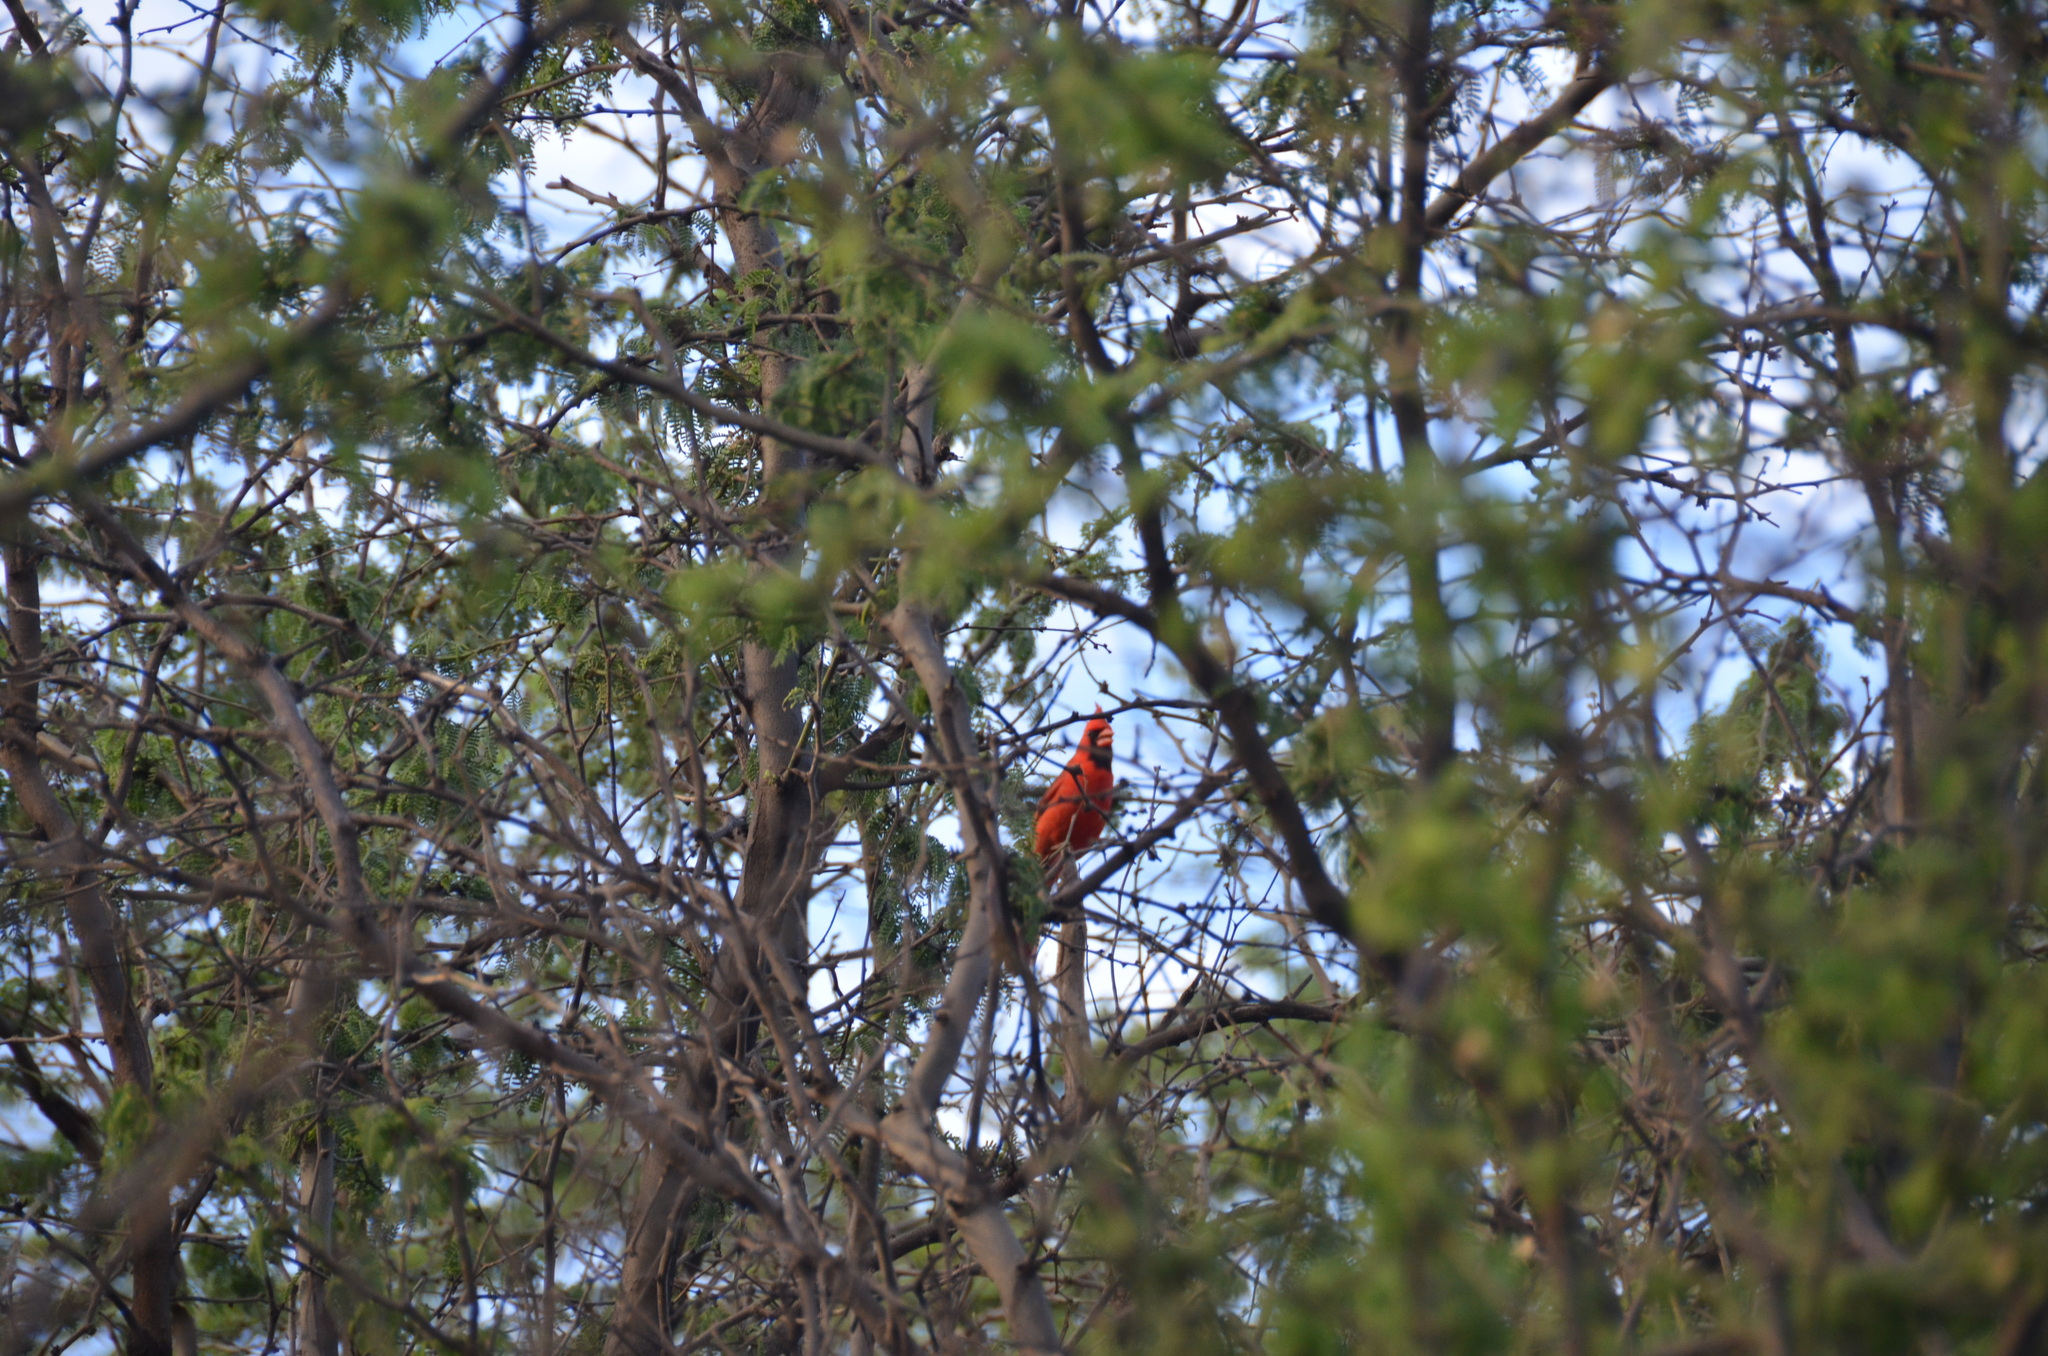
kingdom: Animalia
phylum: Chordata
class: Aves
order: Passeriformes
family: Cardinalidae
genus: Cardinalis
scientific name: Cardinalis cardinalis
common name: Northern cardinal
